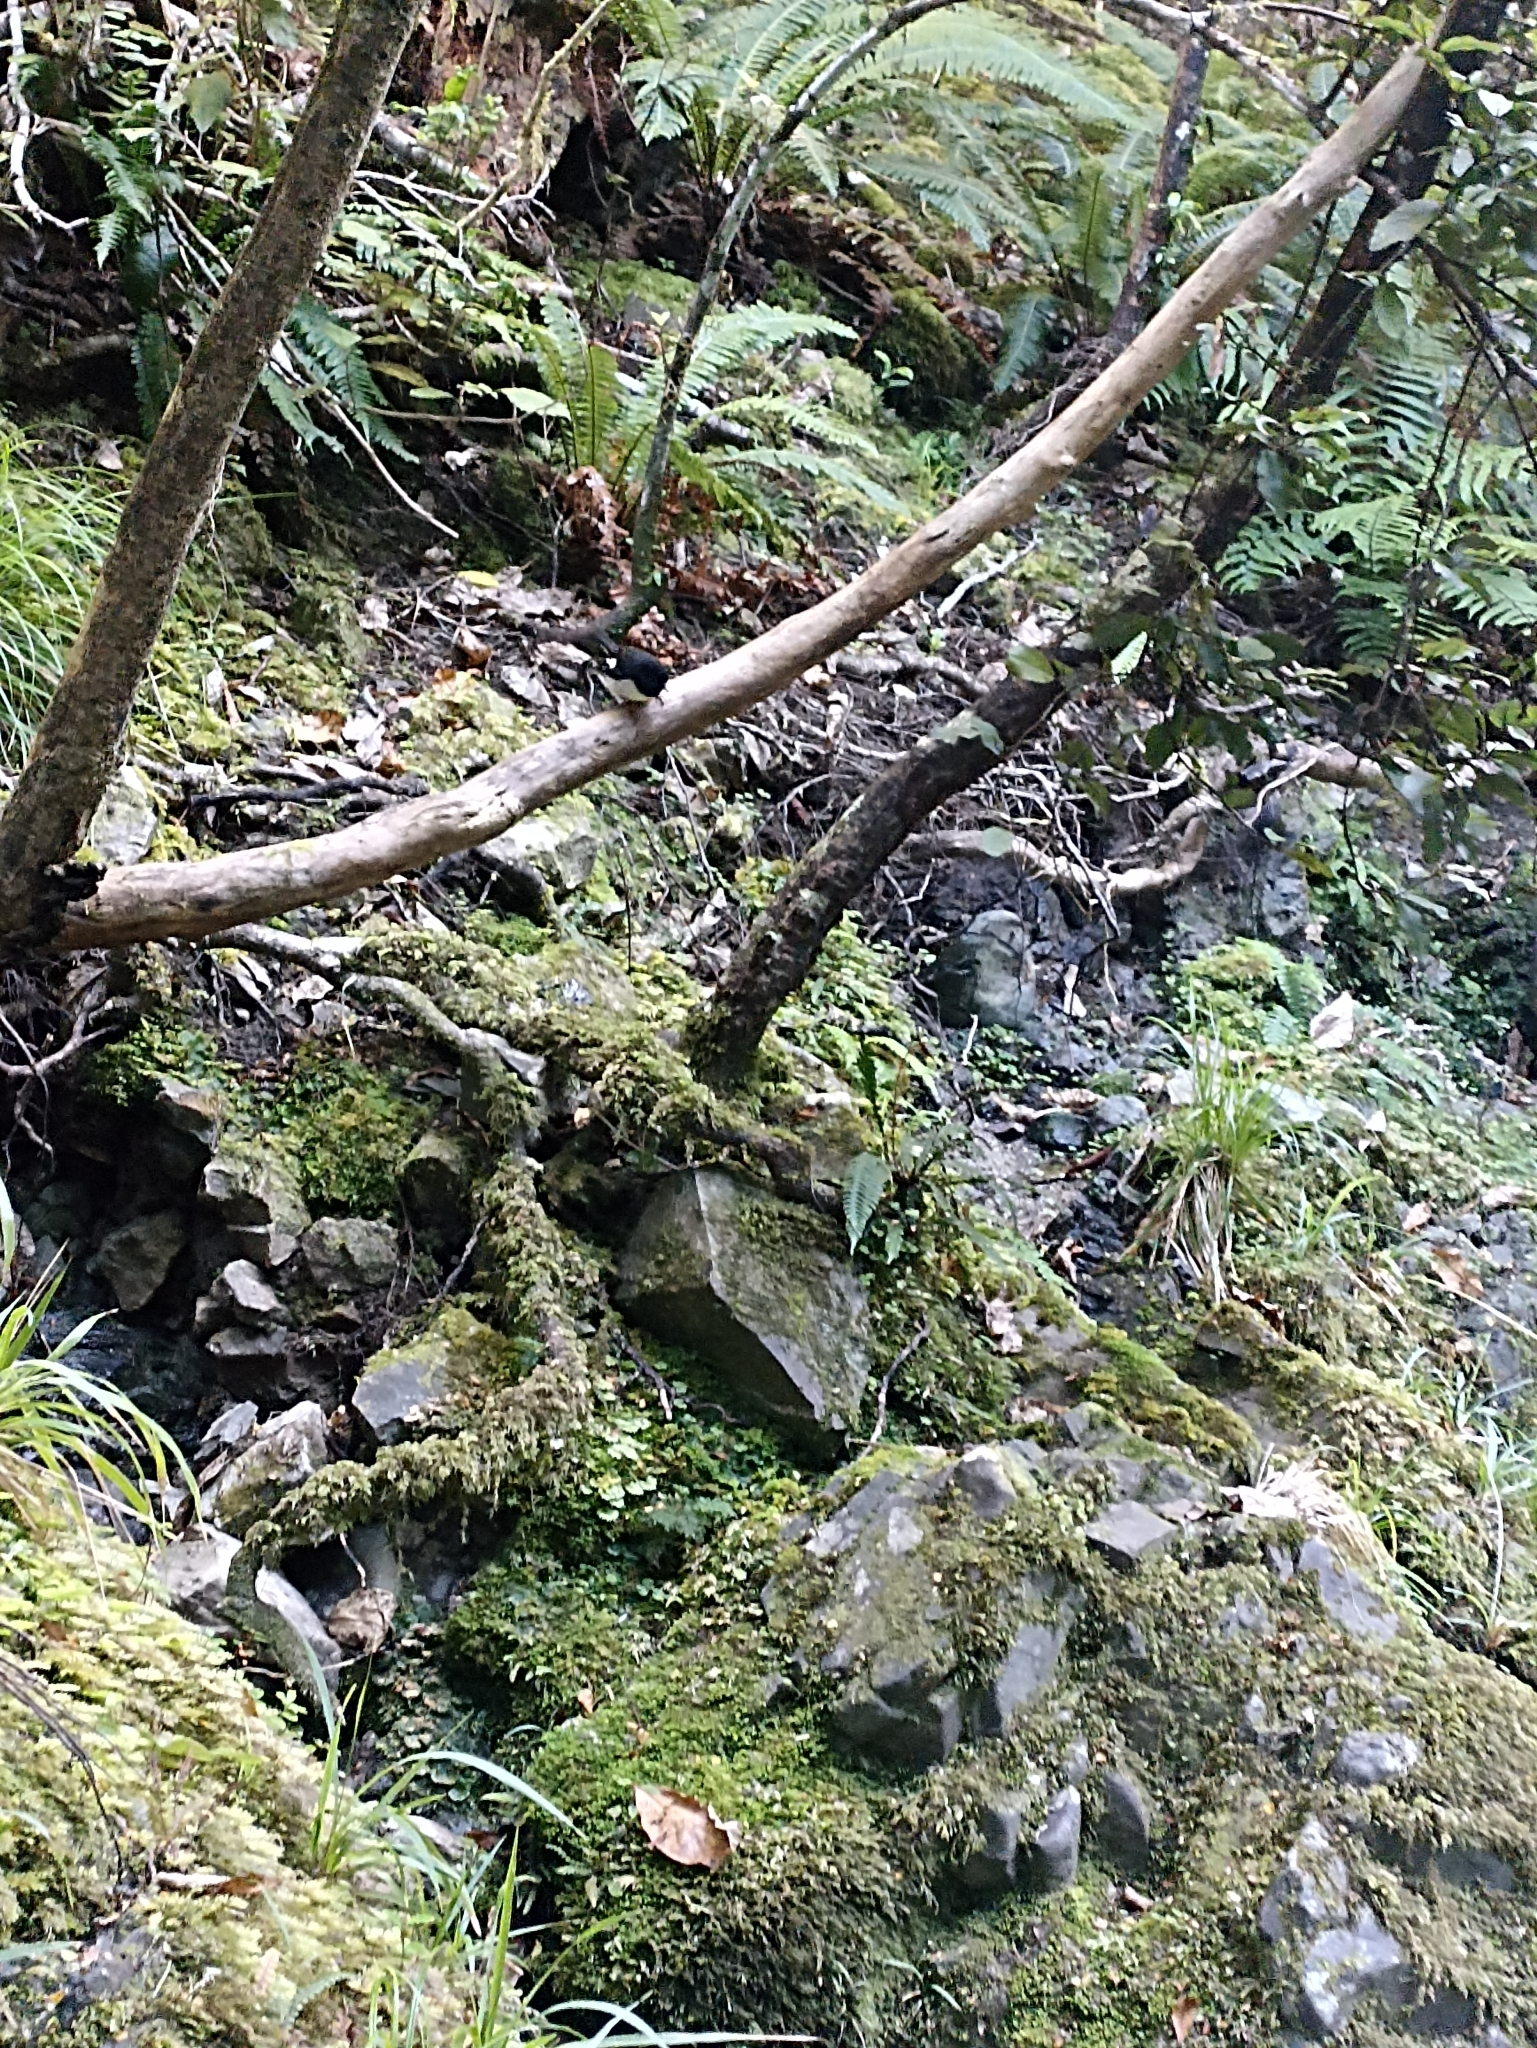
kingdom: Animalia
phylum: Chordata
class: Aves
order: Passeriformes
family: Petroicidae
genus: Petroica
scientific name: Petroica macrocephala
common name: Tomtit
